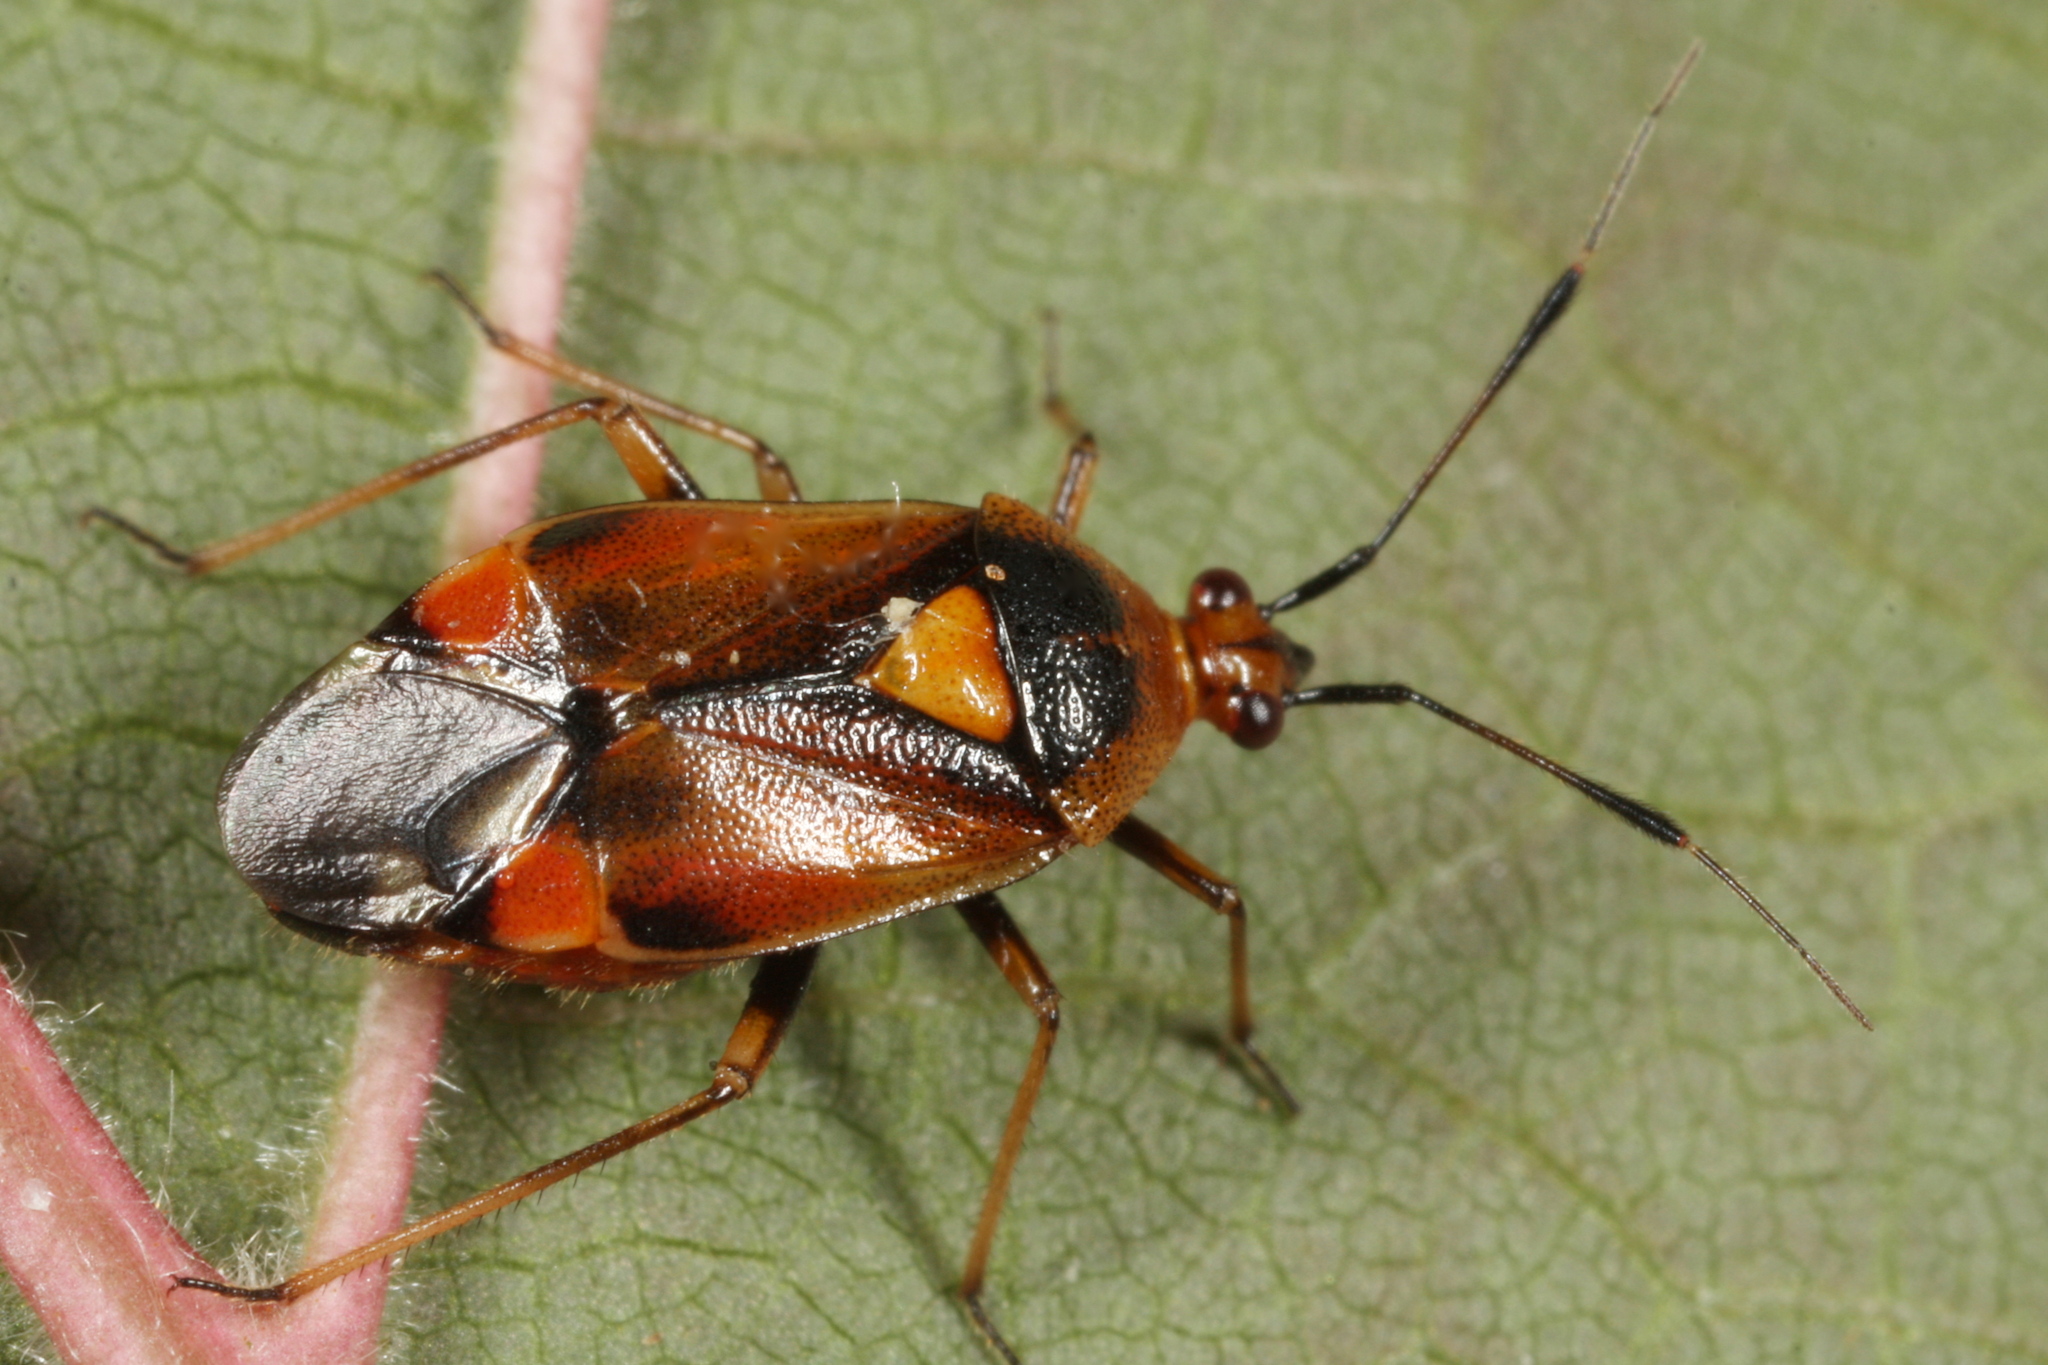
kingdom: Animalia
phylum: Arthropoda
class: Insecta
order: Hemiptera
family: Miridae
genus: Deraeocoris
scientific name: Deraeocoris ruber
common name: Plant bug
